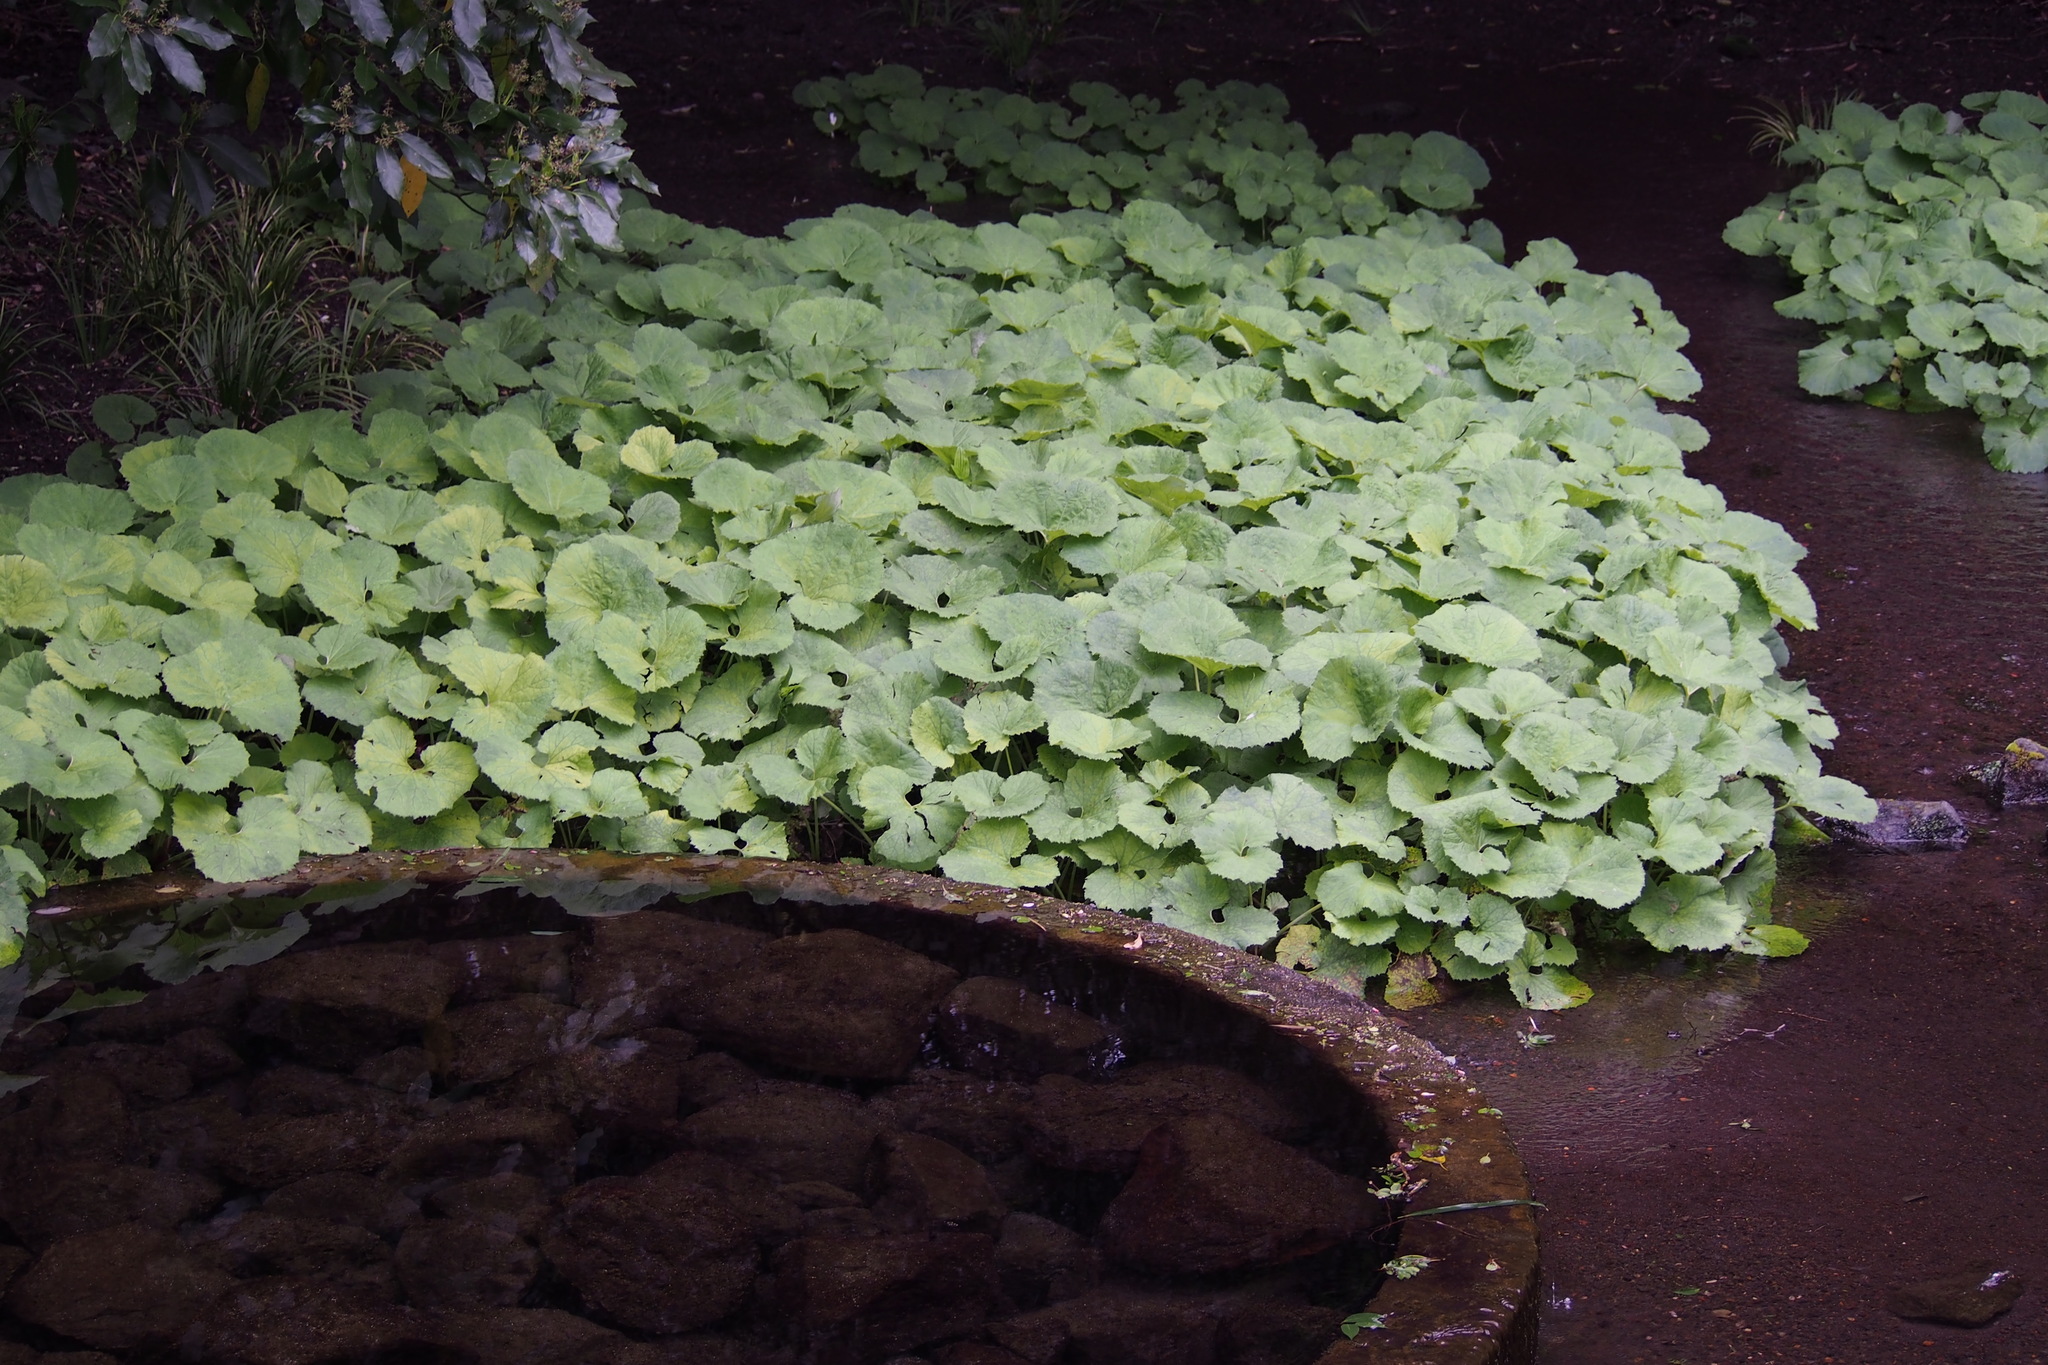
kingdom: Plantae
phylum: Tracheophyta
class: Magnoliopsida
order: Asterales
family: Asteraceae
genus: Petasites
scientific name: Petasites japonicus
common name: Giant butterbur
